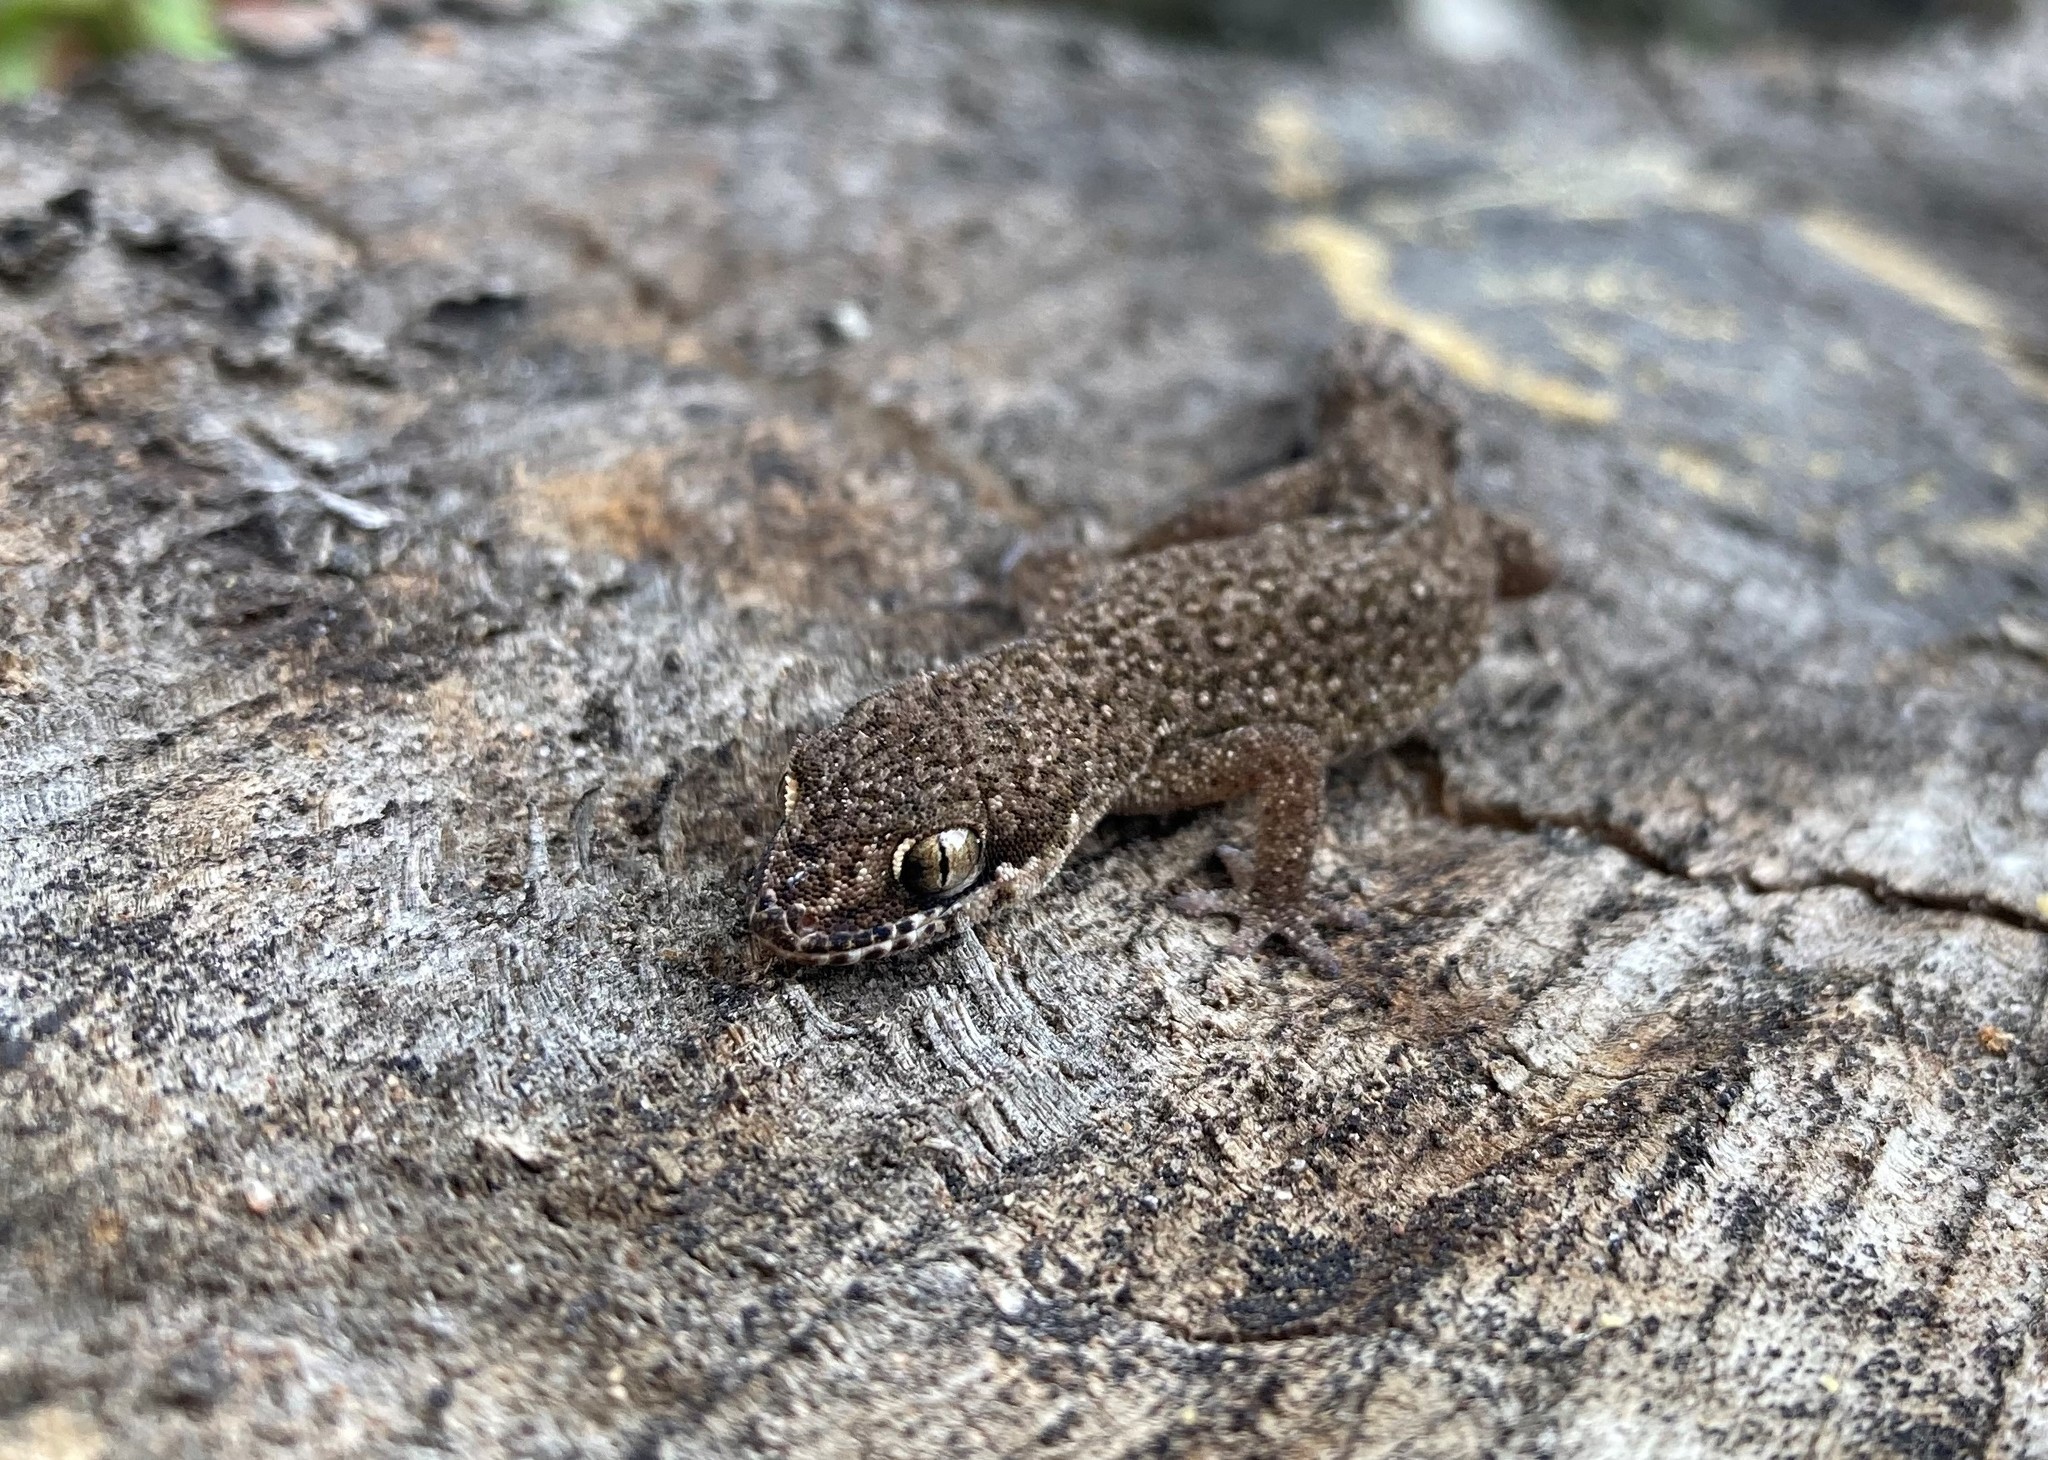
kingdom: Animalia
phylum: Chordata
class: Squamata
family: Gekkonidae
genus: Pachydactylus
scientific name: Pachydactylus geitje
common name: Ocellated thick-toed gecko
